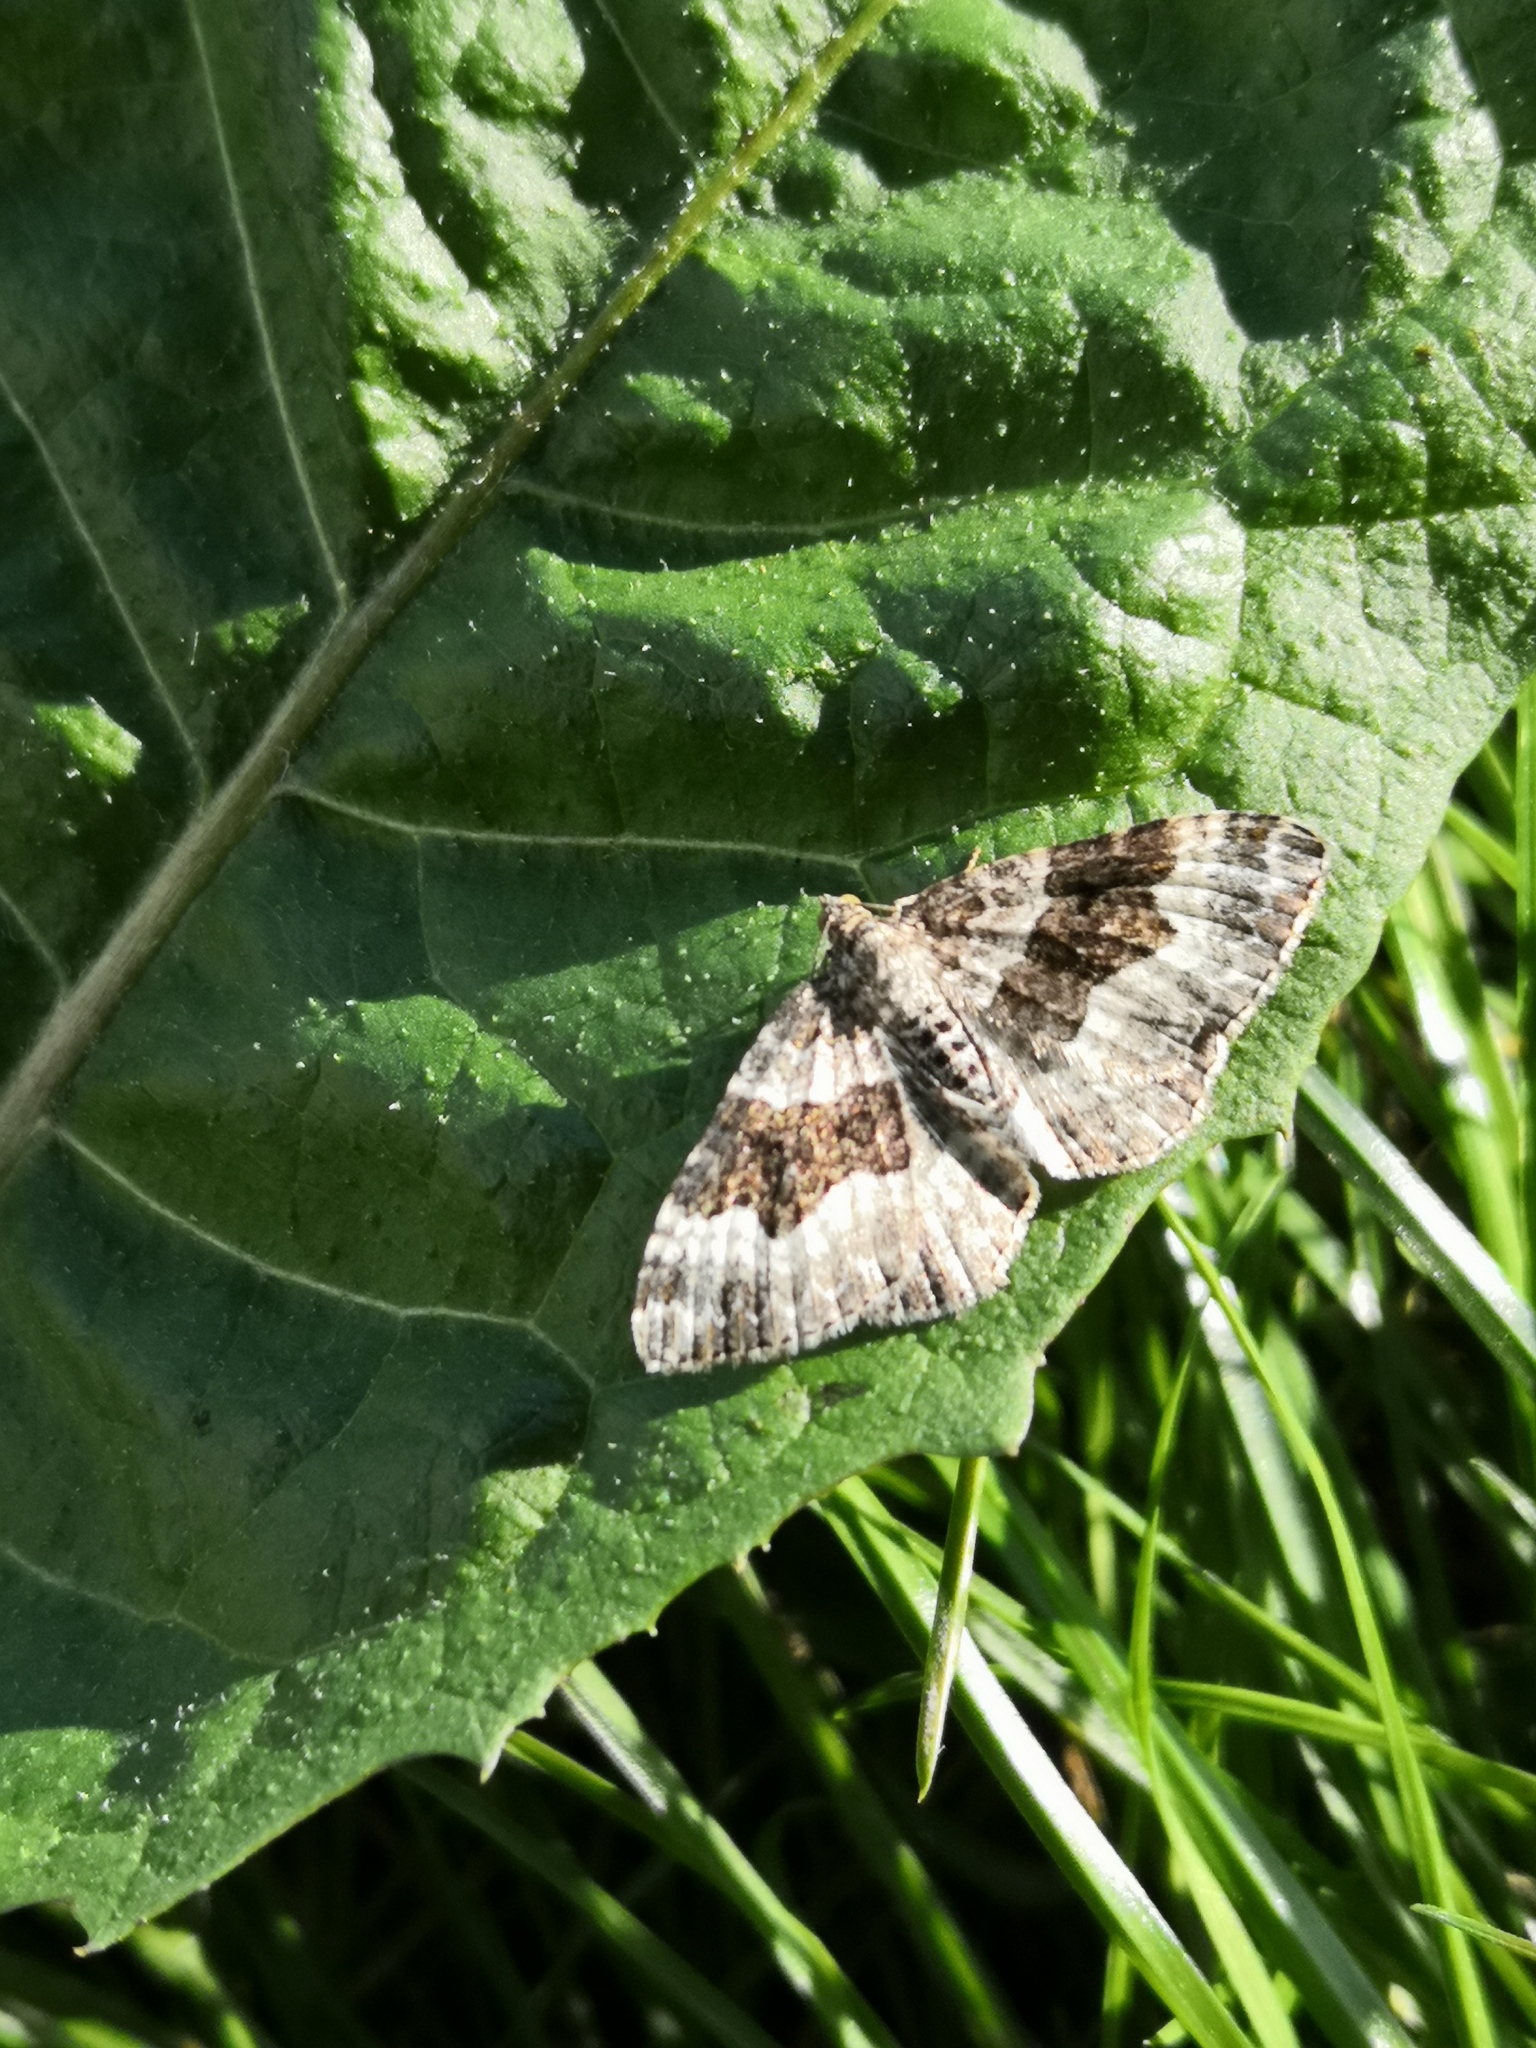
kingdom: Animalia
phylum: Arthropoda
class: Insecta
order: Lepidoptera
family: Geometridae
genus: Epirrhoe
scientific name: Epirrhoe alternata
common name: Common carpet
